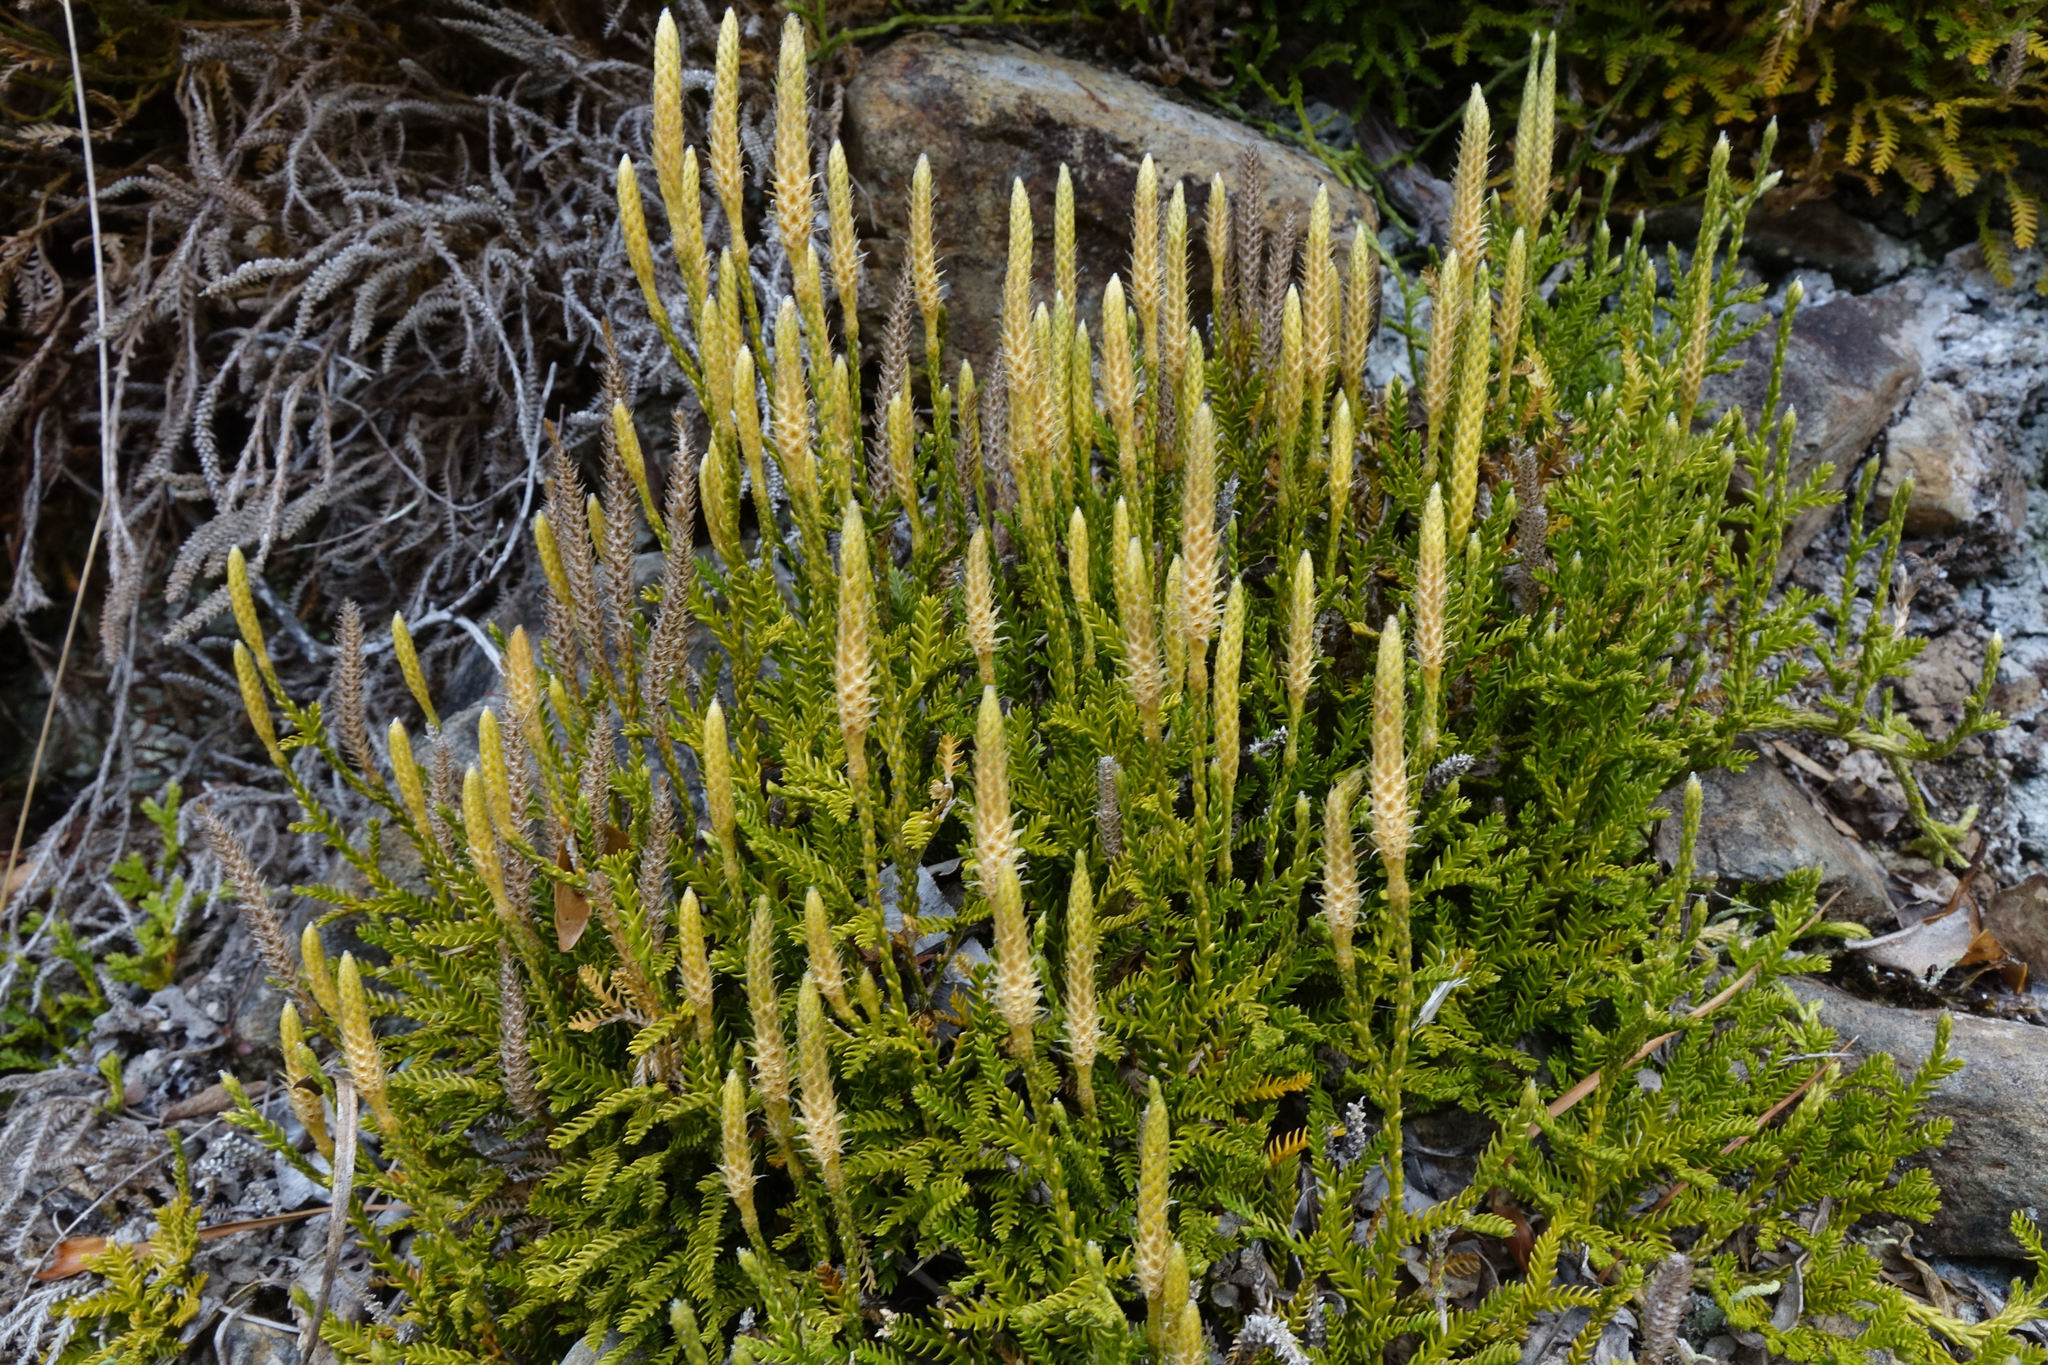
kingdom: Plantae
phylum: Tracheophyta
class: Lycopodiopsida
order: Lycopodiales
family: Lycopodiaceae
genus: Diphasium
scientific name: Diphasium scariosum
